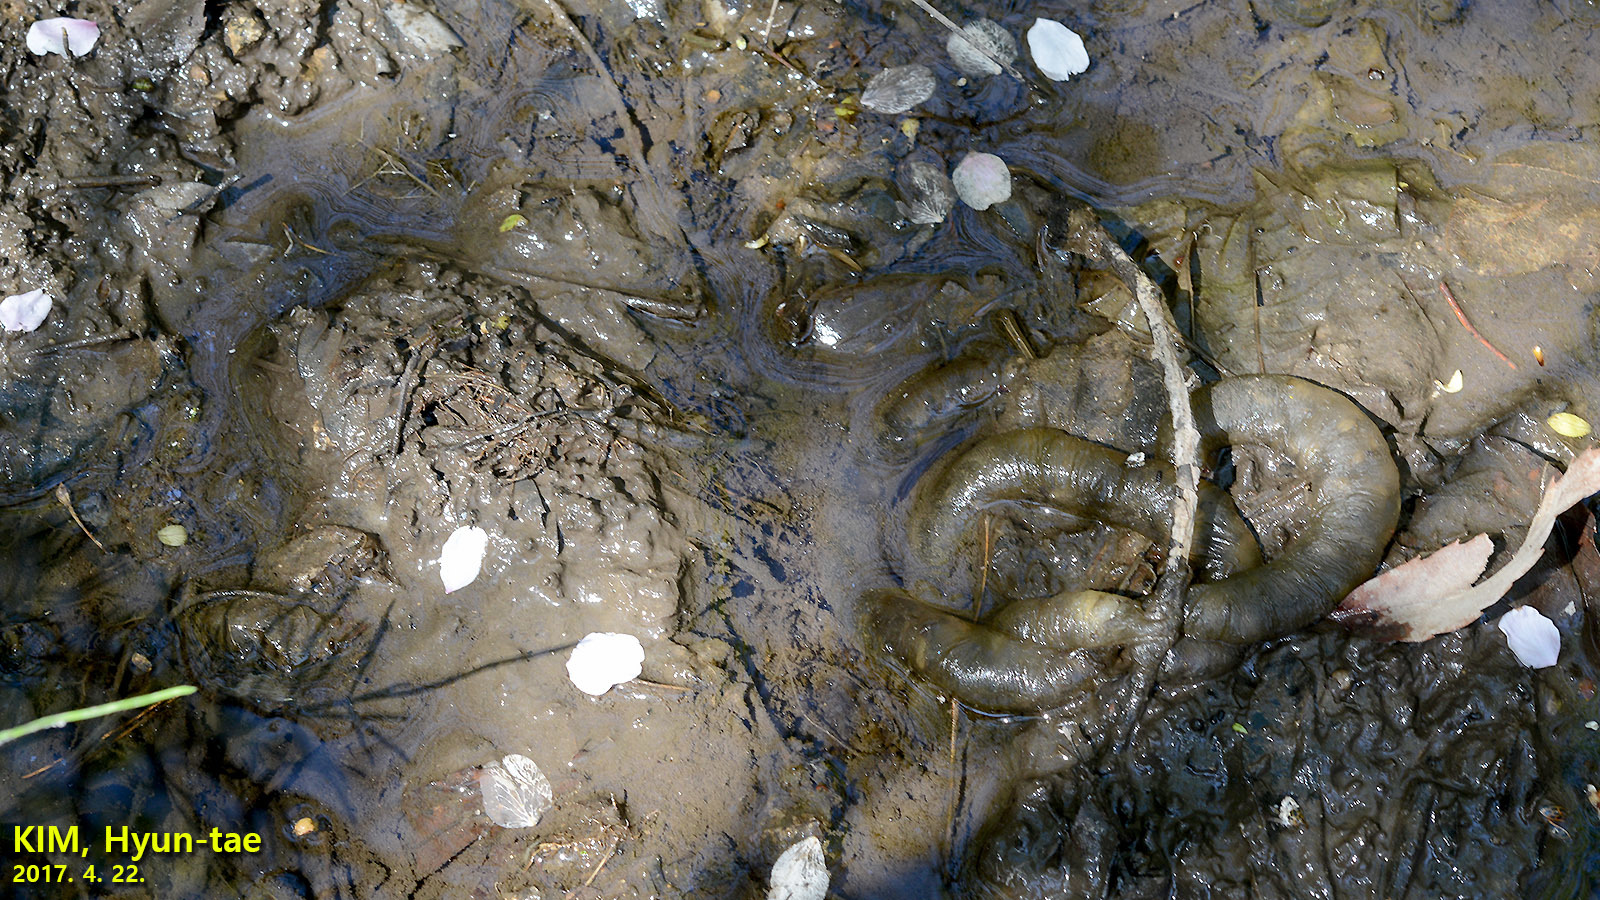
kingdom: Animalia
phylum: Chordata
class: Amphibia
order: Caudata
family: Hynobiidae
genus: Hynobius
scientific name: Hynobius leechii
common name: Gensan salamander
